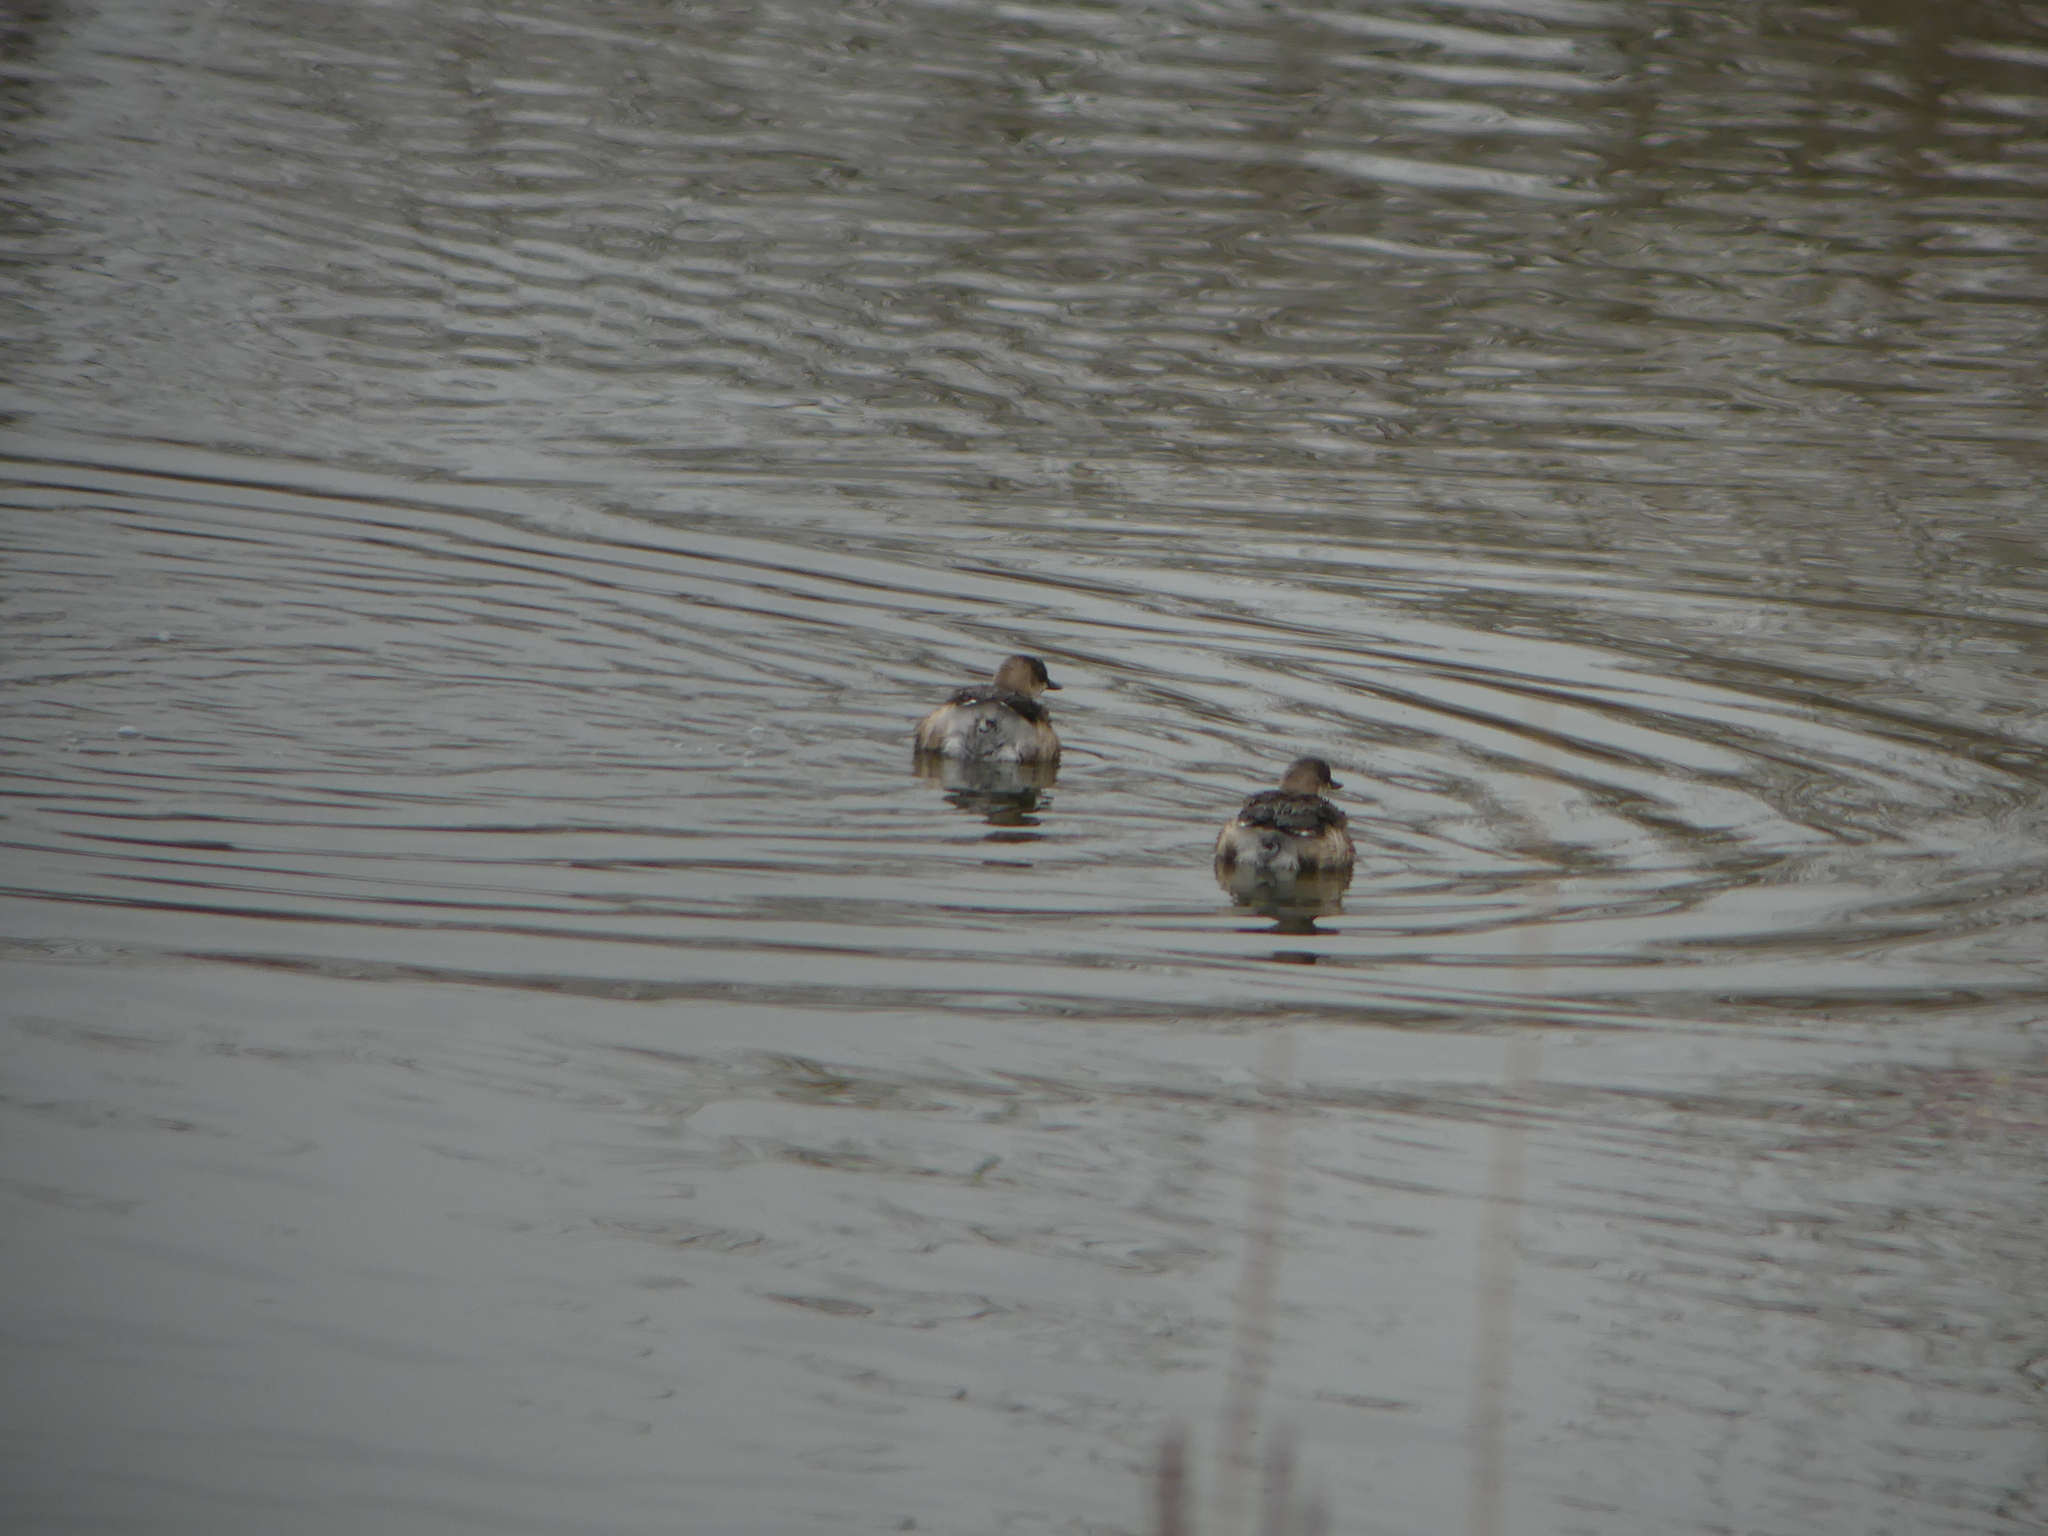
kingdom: Animalia
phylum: Chordata
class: Aves
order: Podicipediformes
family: Podicipedidae
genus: Tachybaptus
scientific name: Tachybaptus ruficollis
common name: Little grebe
